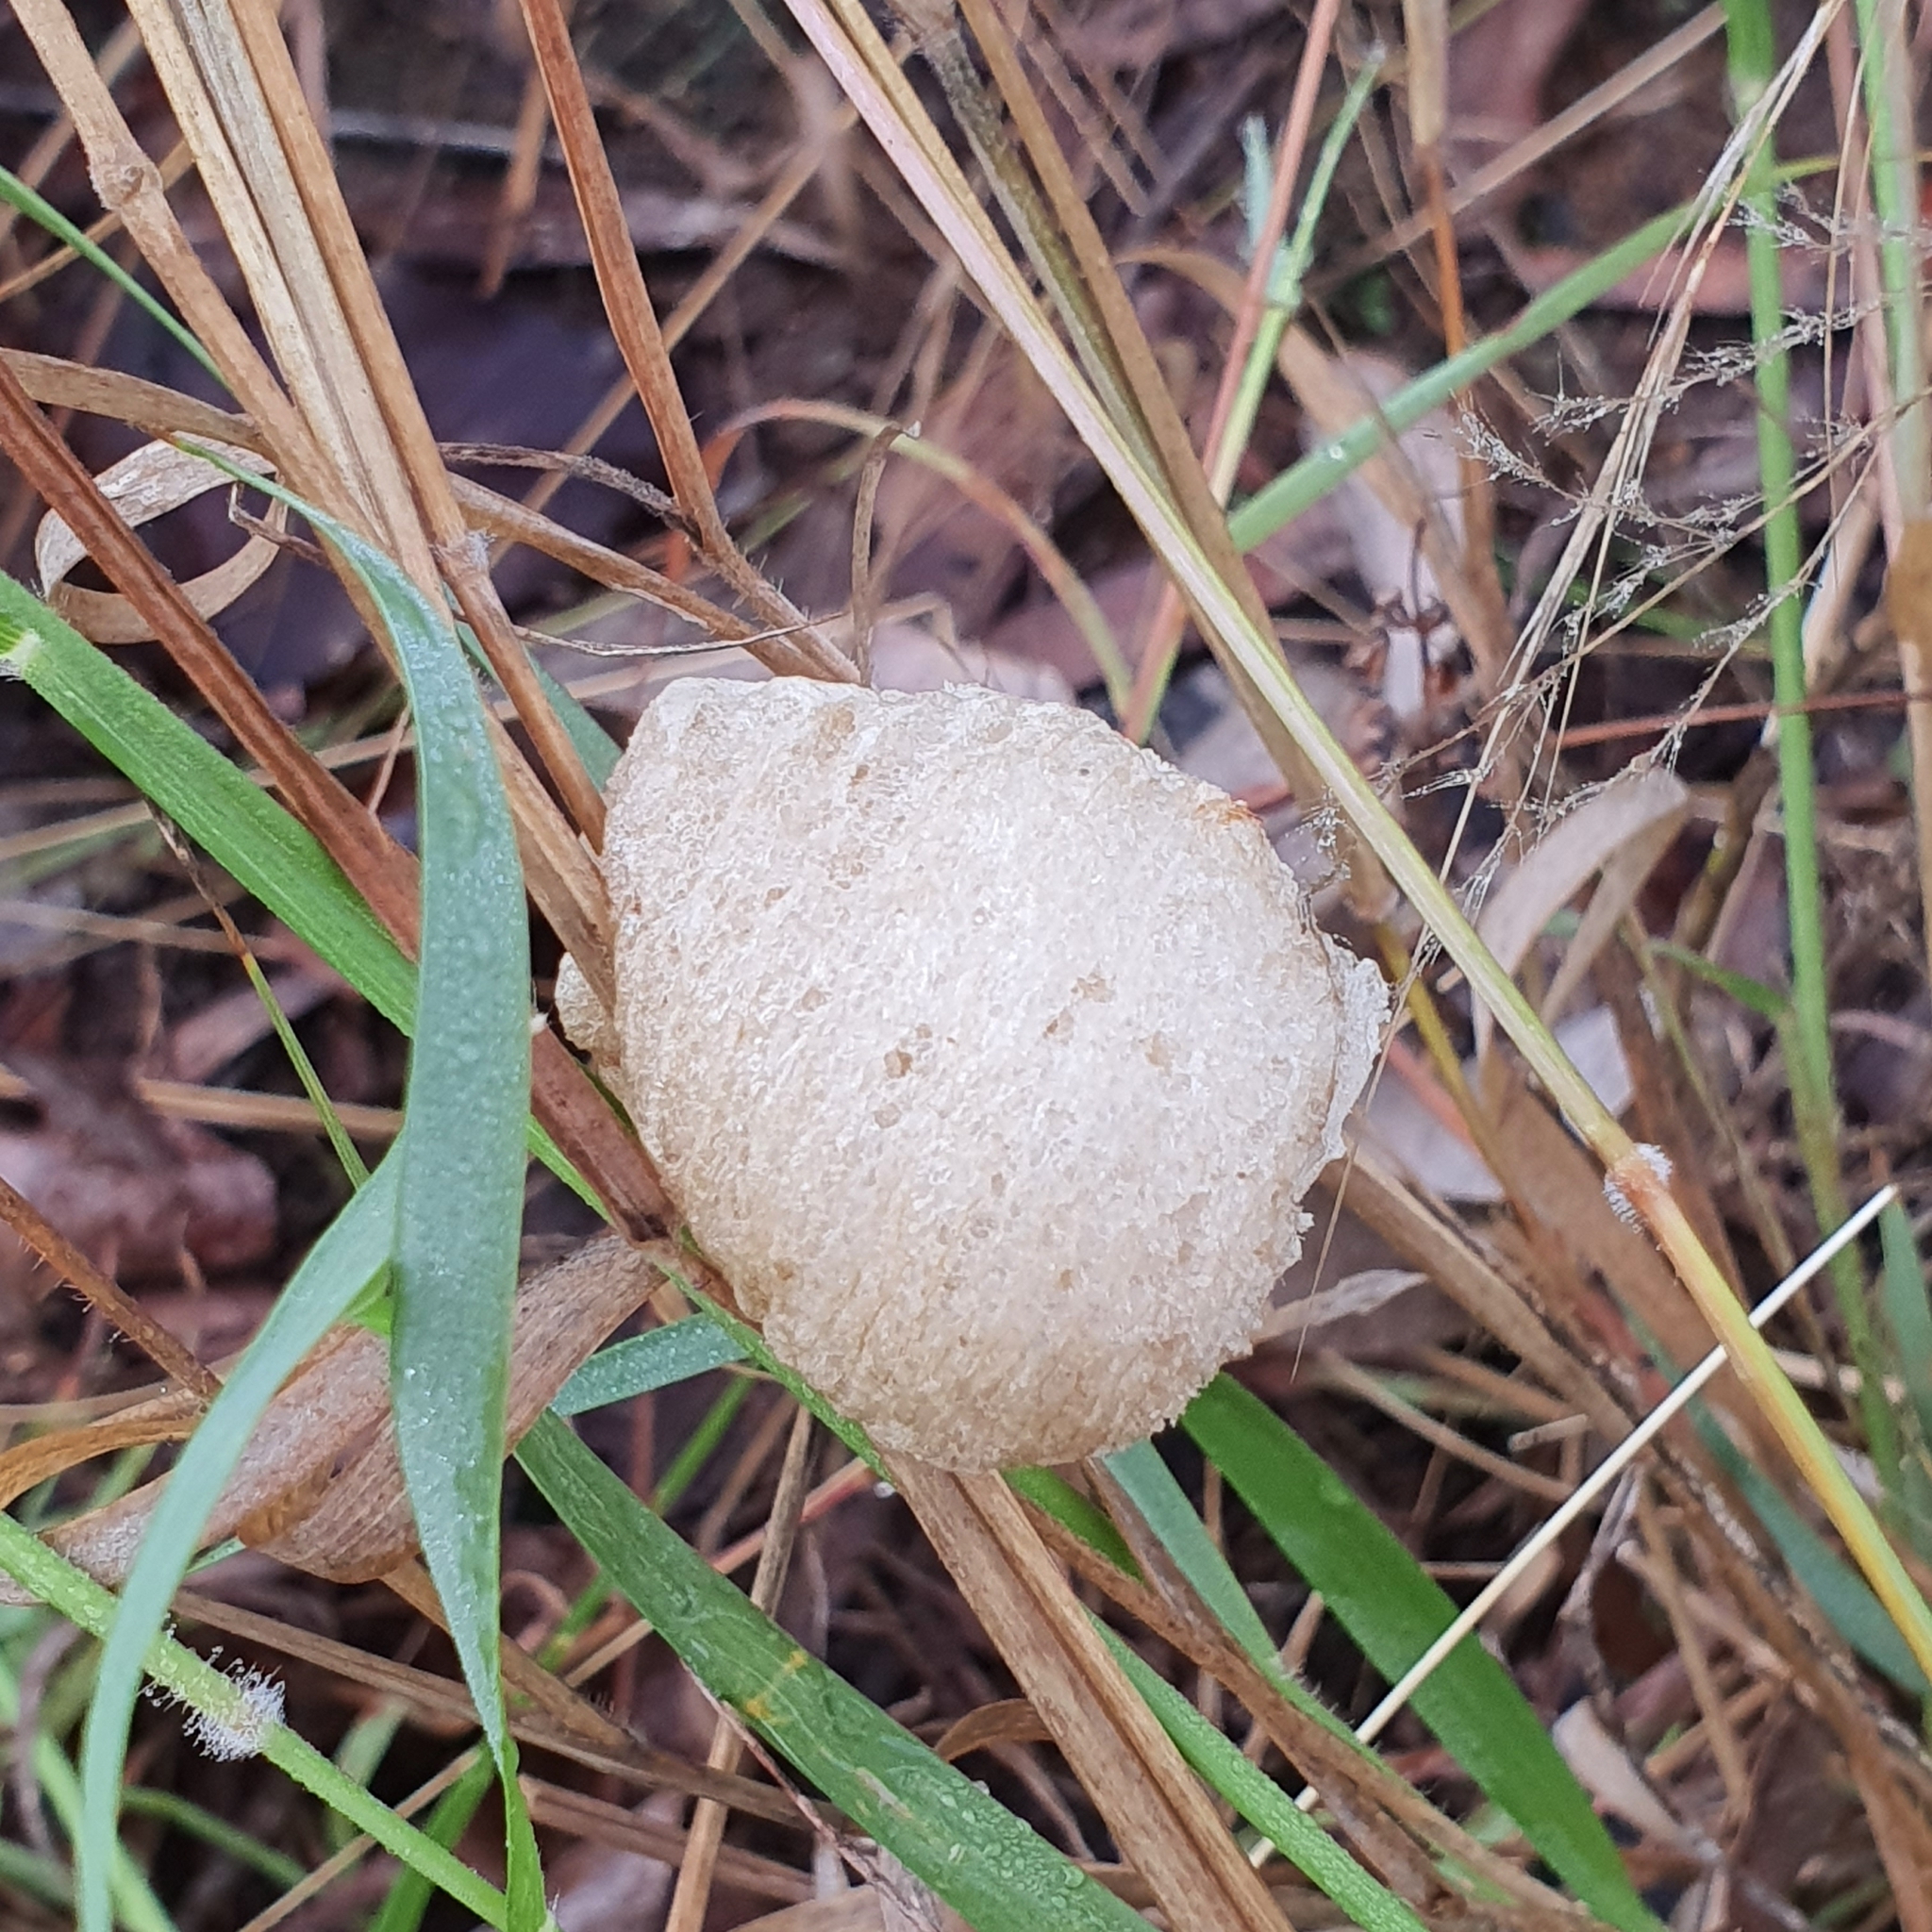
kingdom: Animalia
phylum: Arthropoda
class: Insecta
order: Mantodea
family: Mantidae
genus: Archimantis
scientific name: Archimantis latistyla
